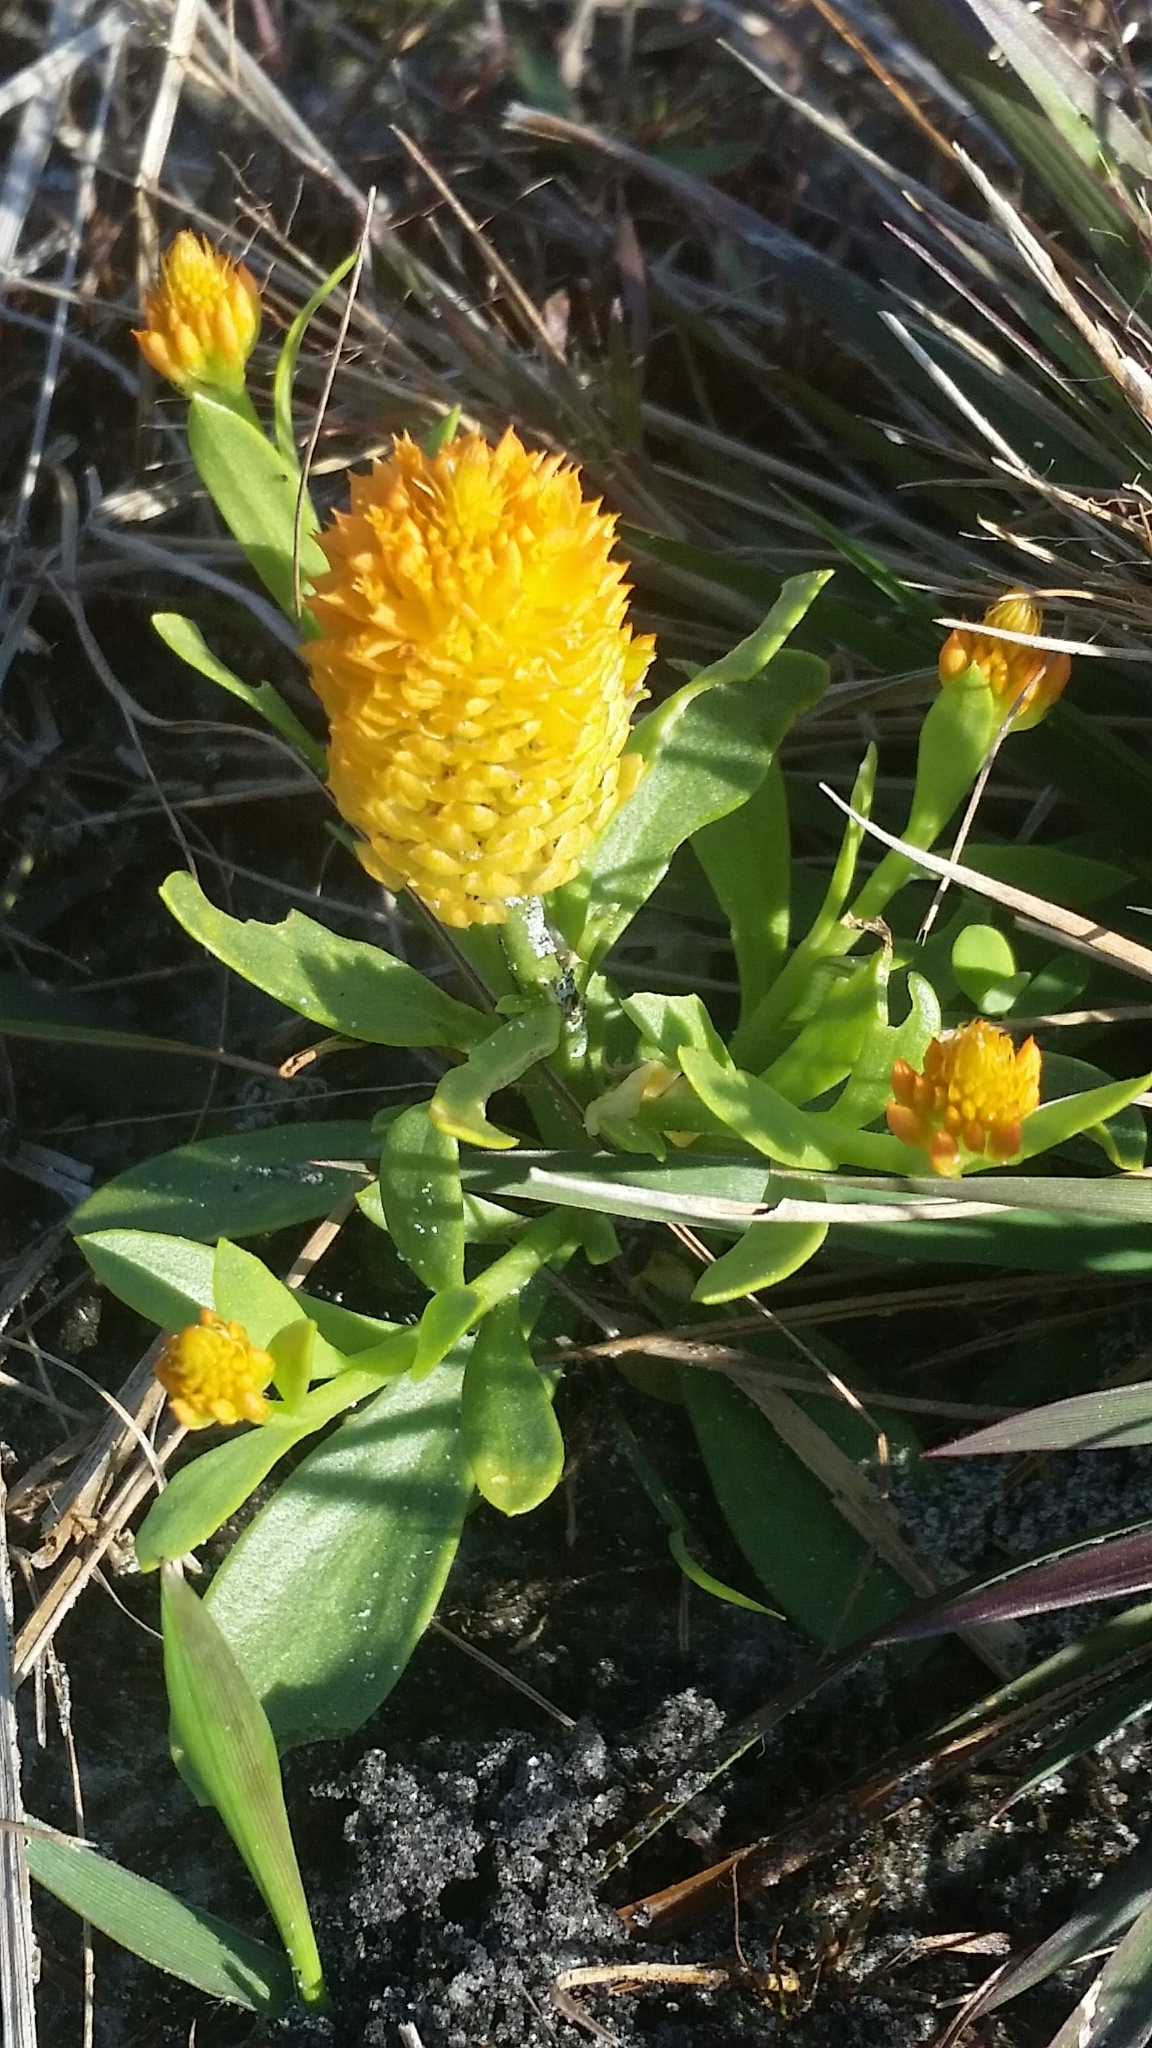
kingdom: Plantae
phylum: Tracheophyta
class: Magnoliopsida
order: Fabales
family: Polygalaceae
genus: Polygala
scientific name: Polygala lutea
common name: Orange milkwort
